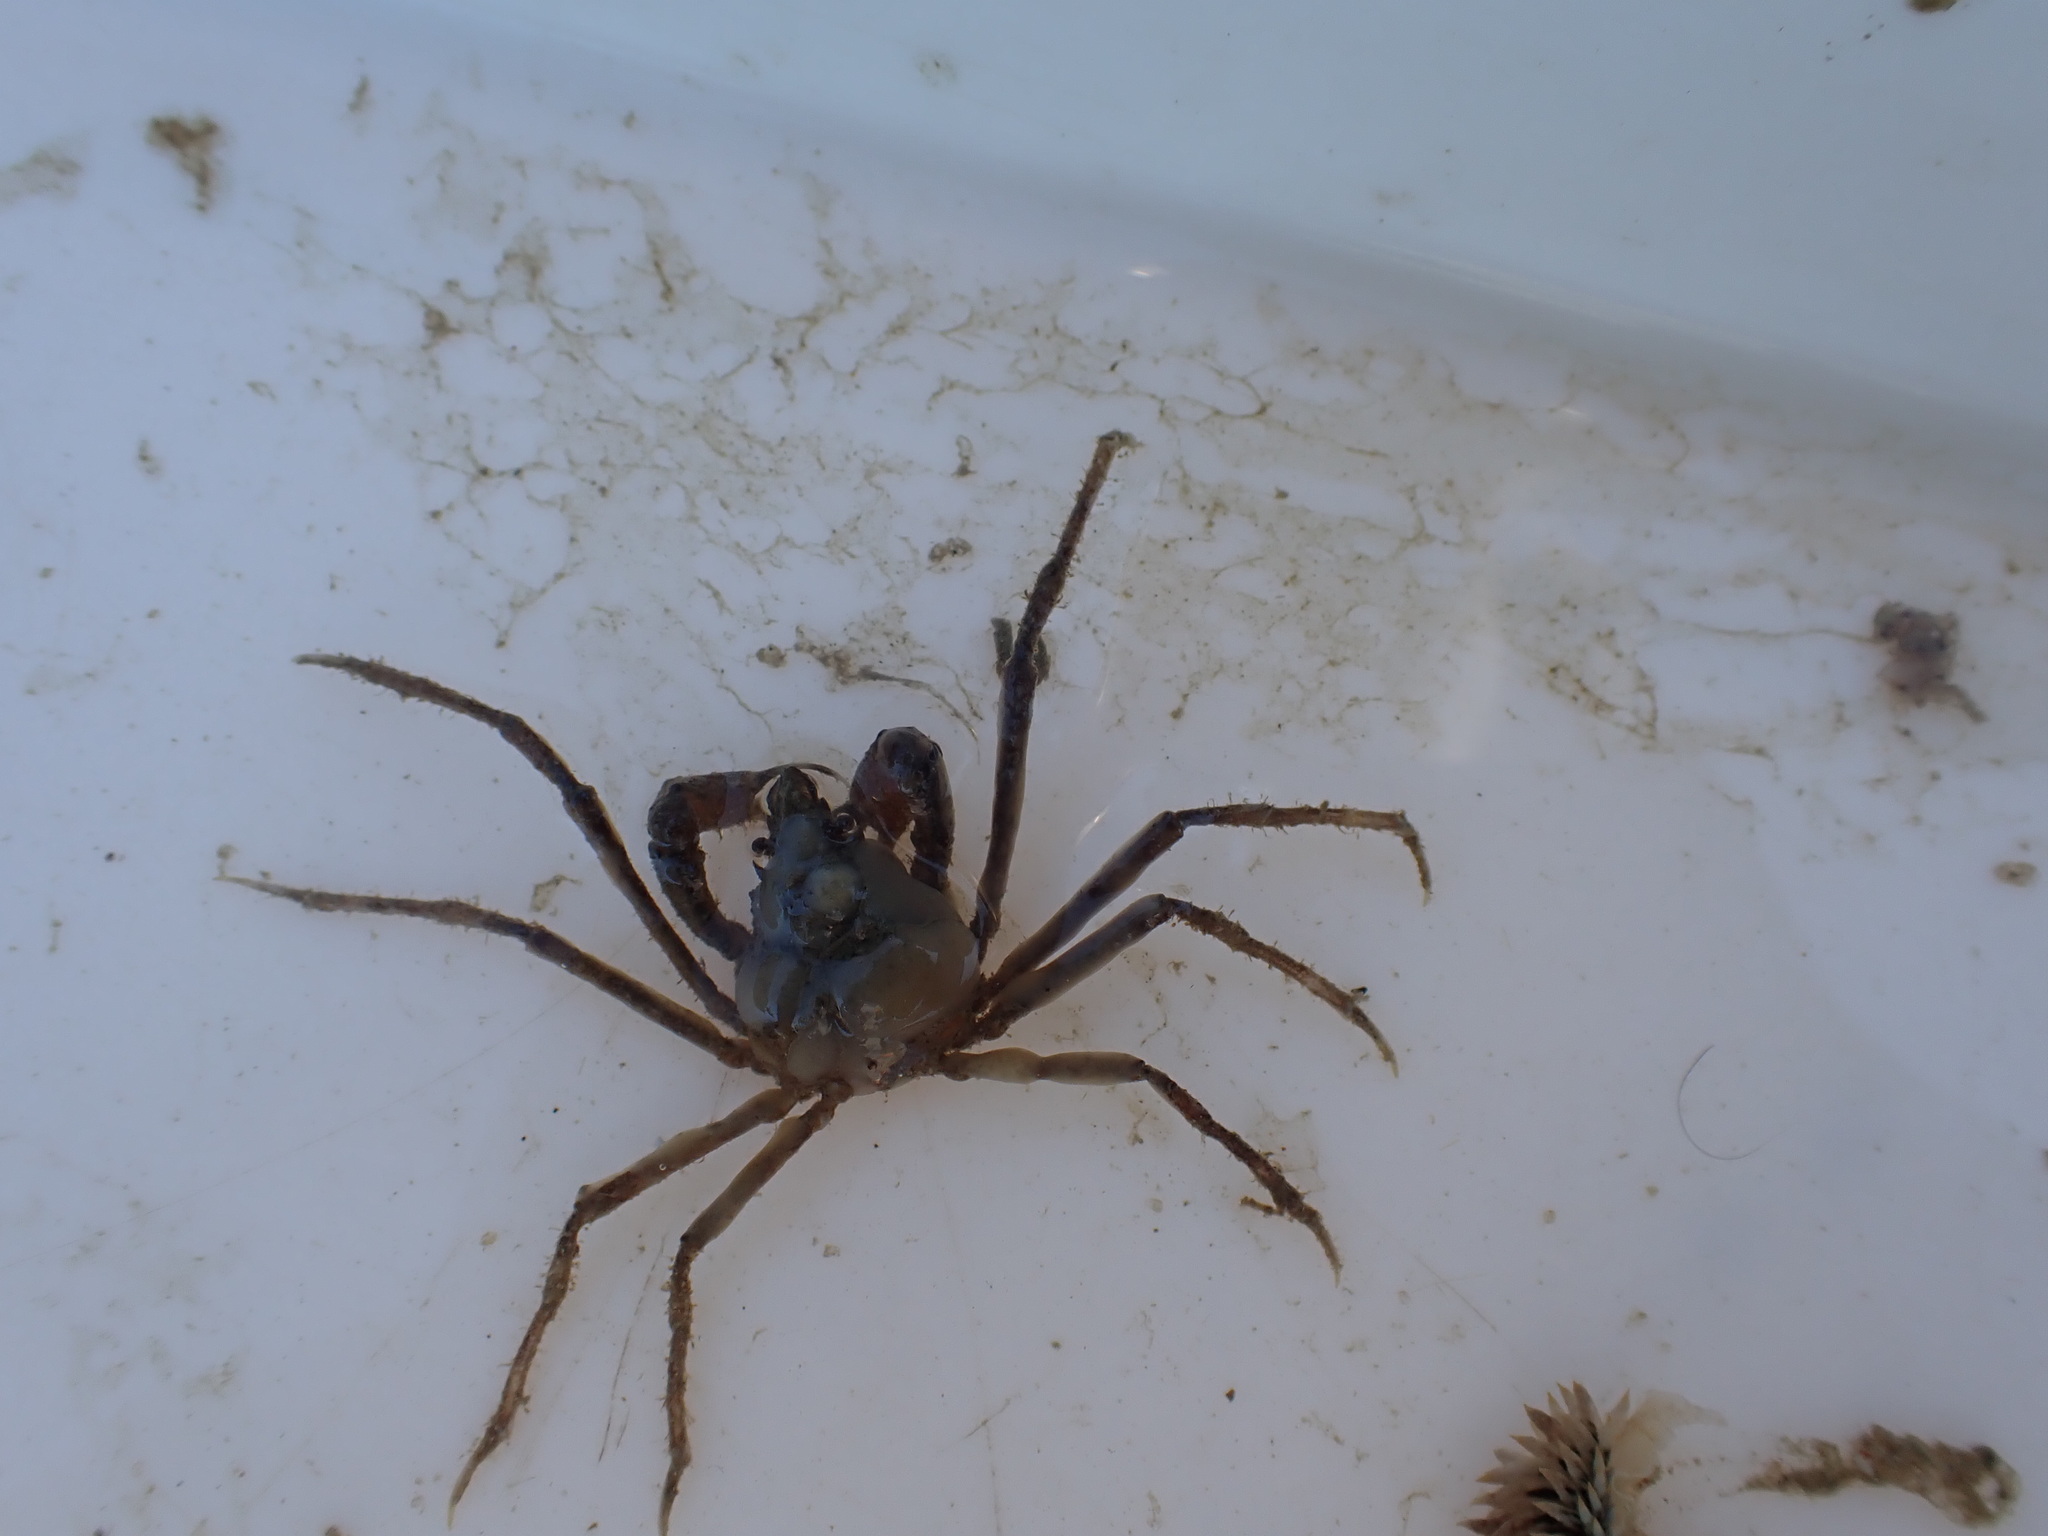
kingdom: Animalia
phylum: Arthropoda
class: Malacostraca
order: Decapoda
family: Inachoididae
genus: Pyromaia
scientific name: Pyromaia tuberculata
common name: Tuberculate pear crab
